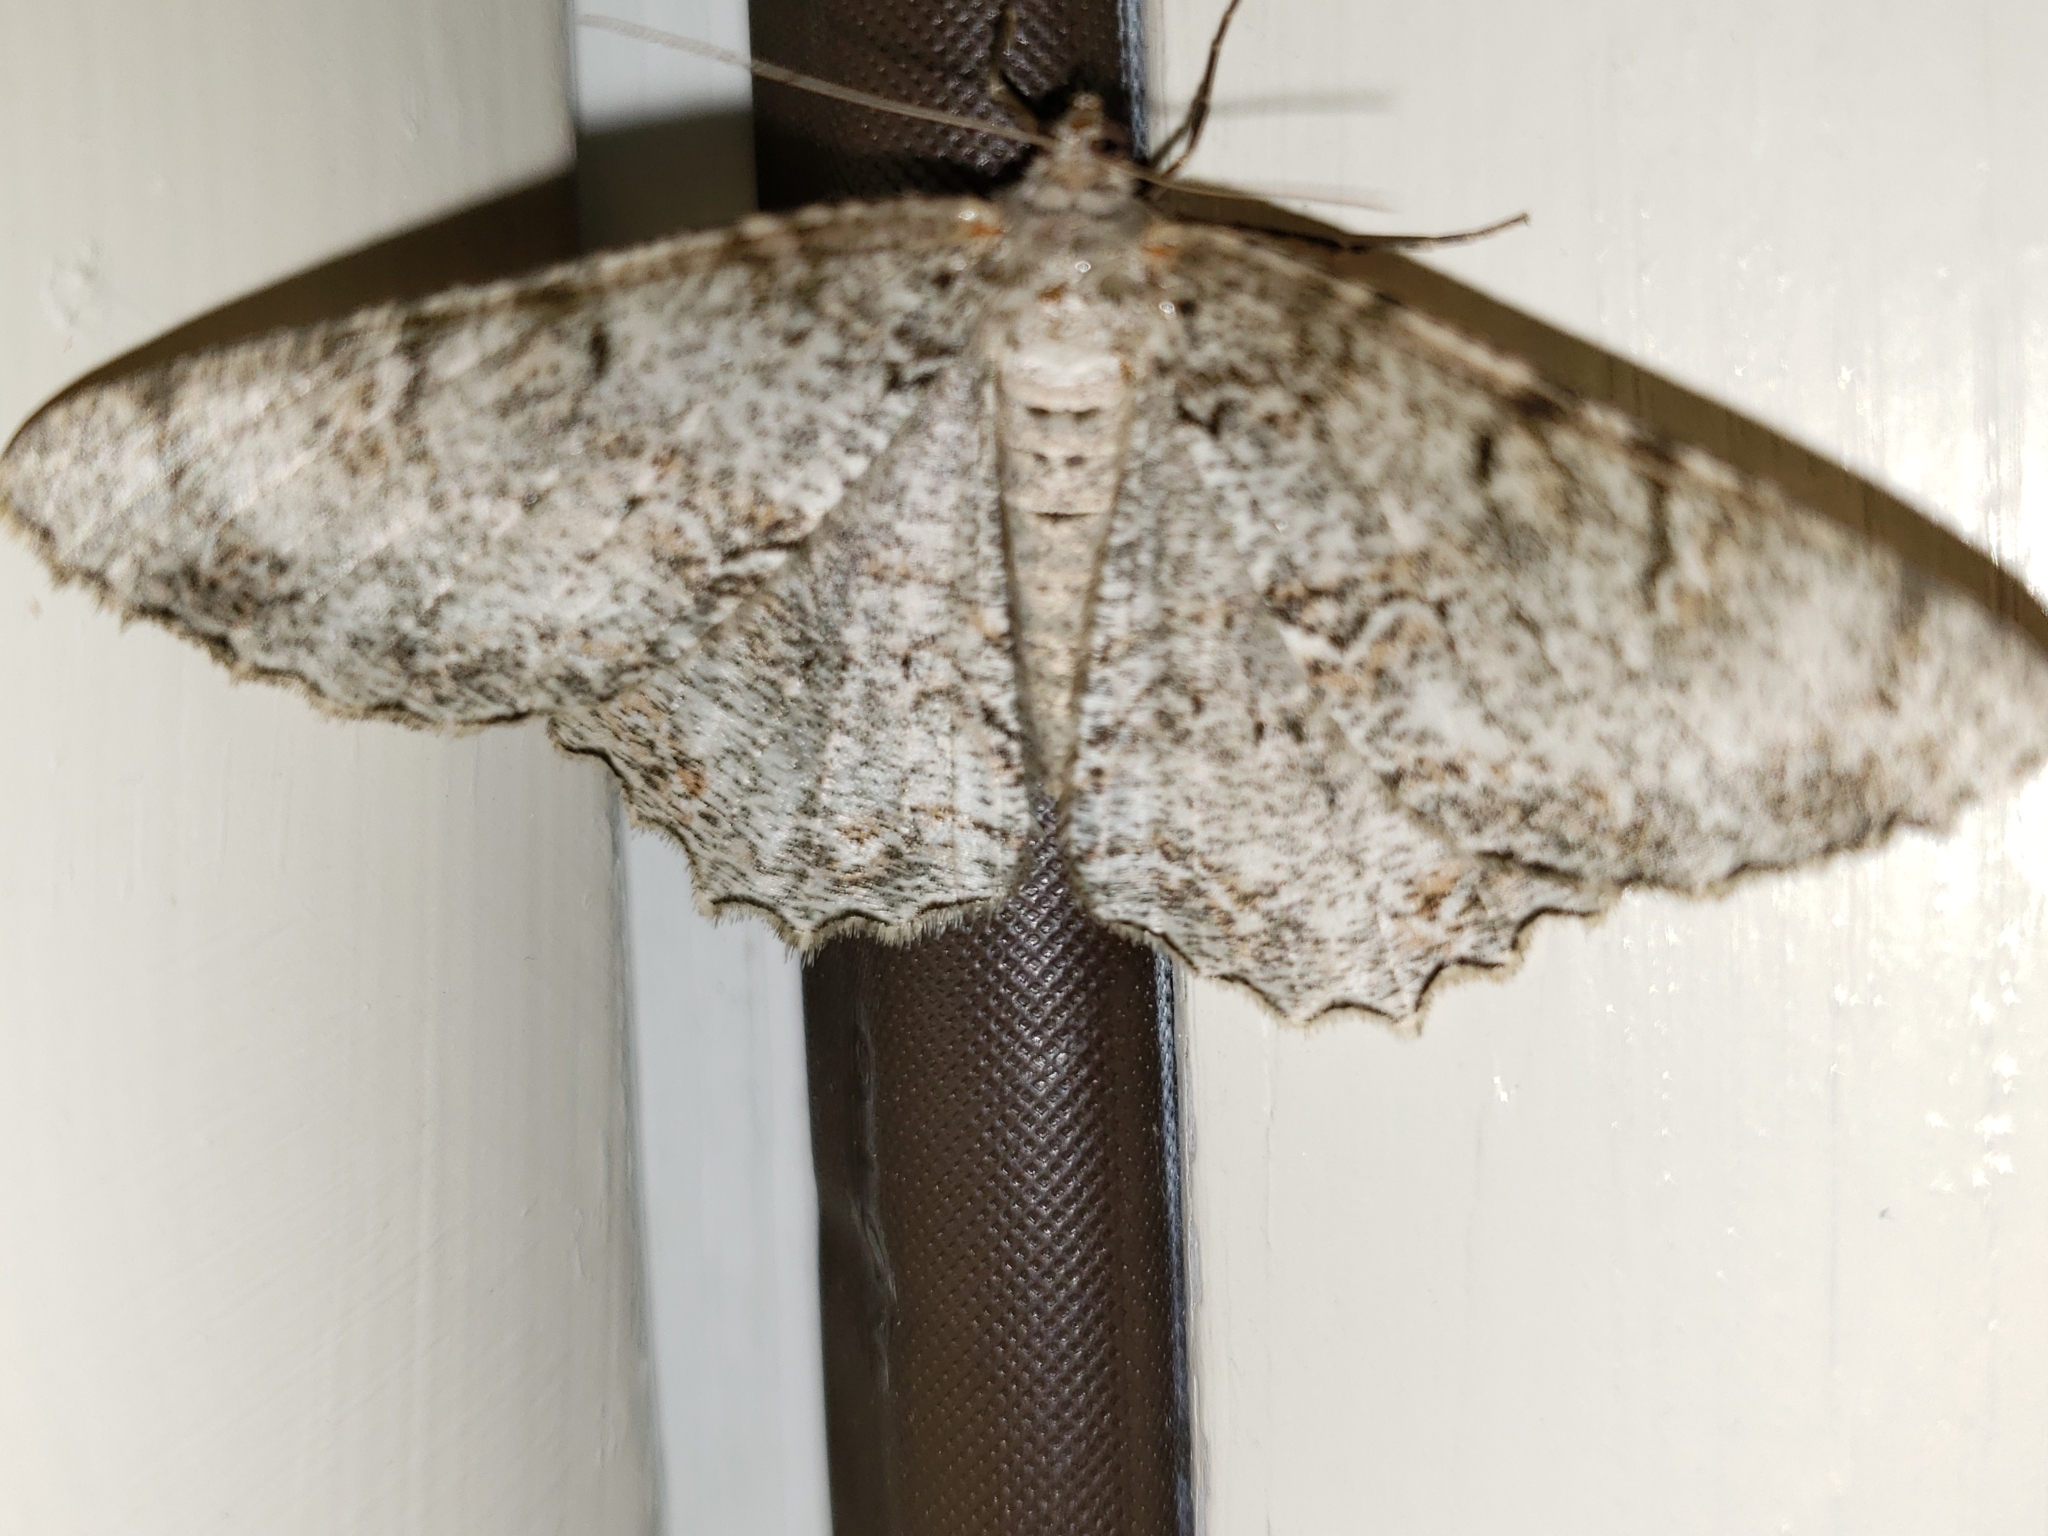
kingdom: Animalia
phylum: Arthropoda
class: Insecta
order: Lepidoptera
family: Geometridae
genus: Epimecis
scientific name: Epimecis hortaria
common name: Tulip-tree beauty
